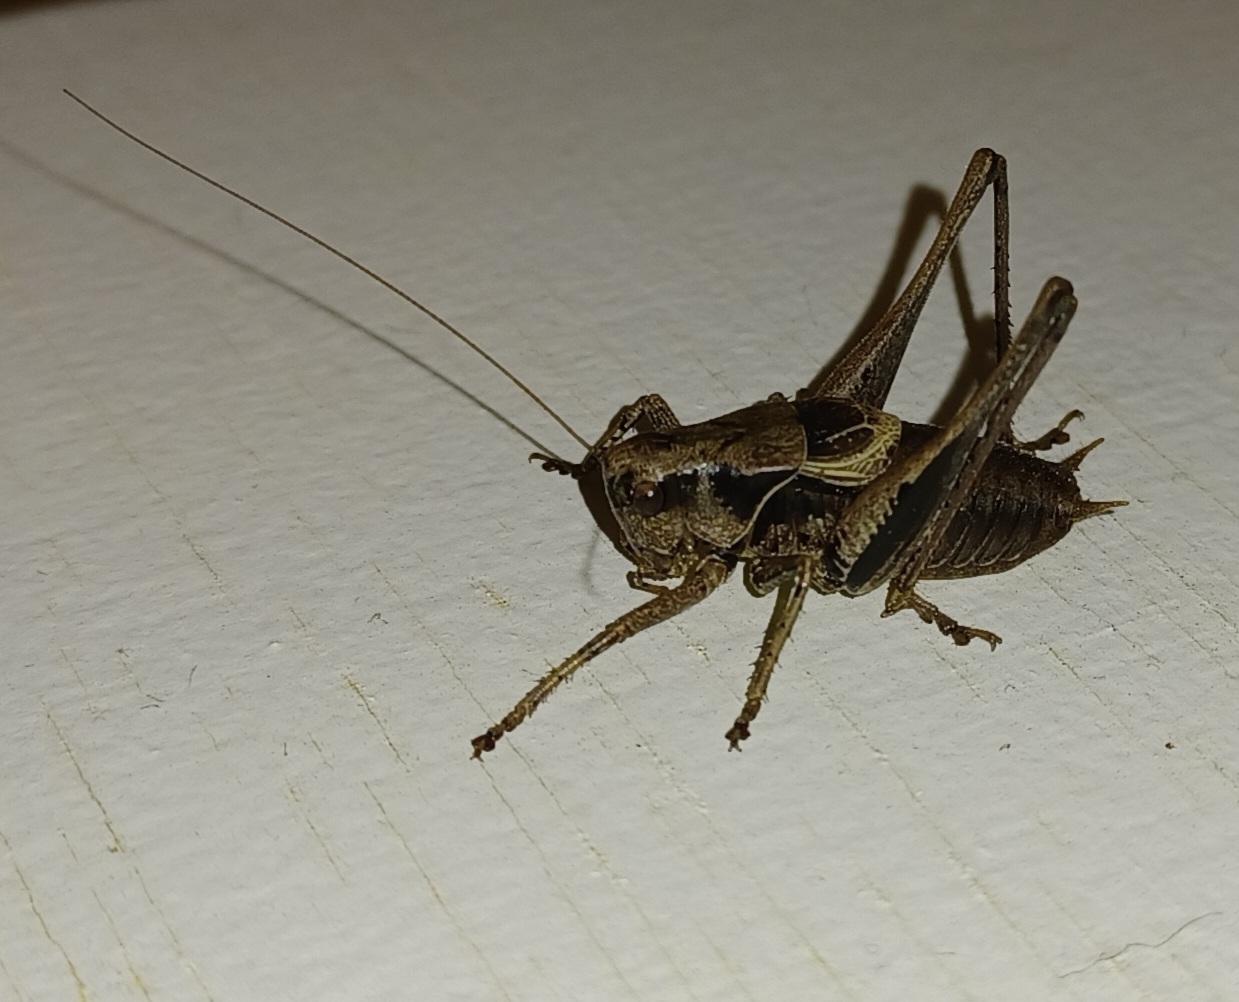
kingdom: Animalia
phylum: Arthropoda
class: Insecta
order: Orthoptera
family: Tettigoniidae
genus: Pholidoptera
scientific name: Pholidoptera griseoaptera
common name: Dark bush-cricket
